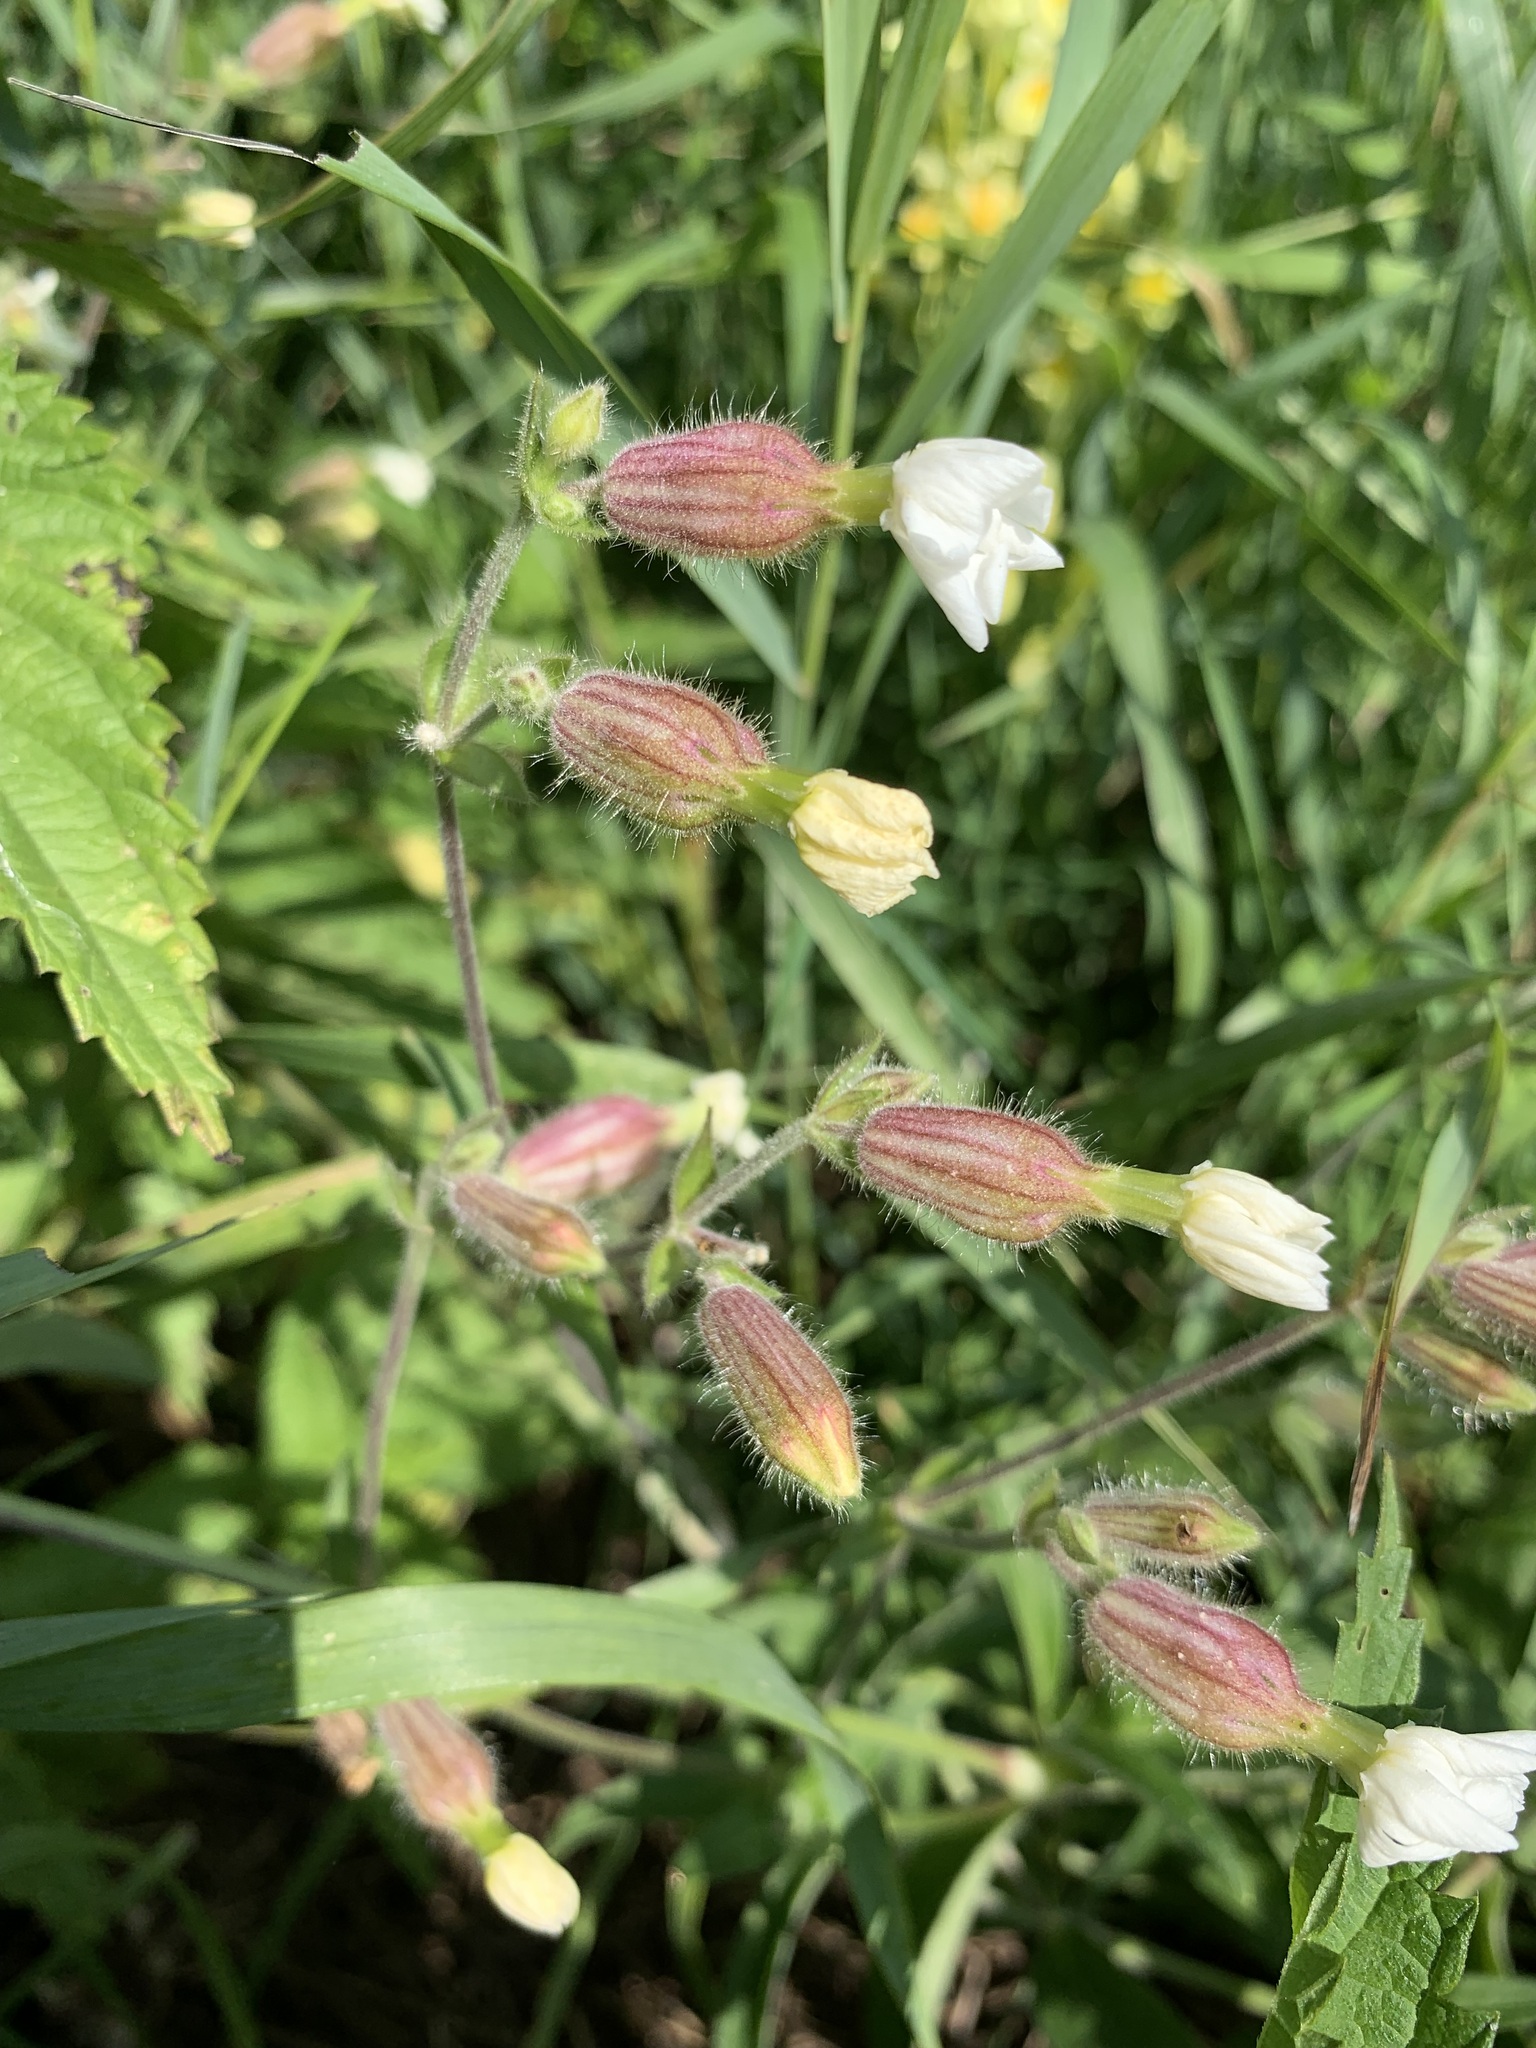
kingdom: Plantae
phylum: Tracheophyta
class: Magnoliopsida
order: Caryophyllales
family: Caryophyllaceae
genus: Silene
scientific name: Silene latifolia
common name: White campion
